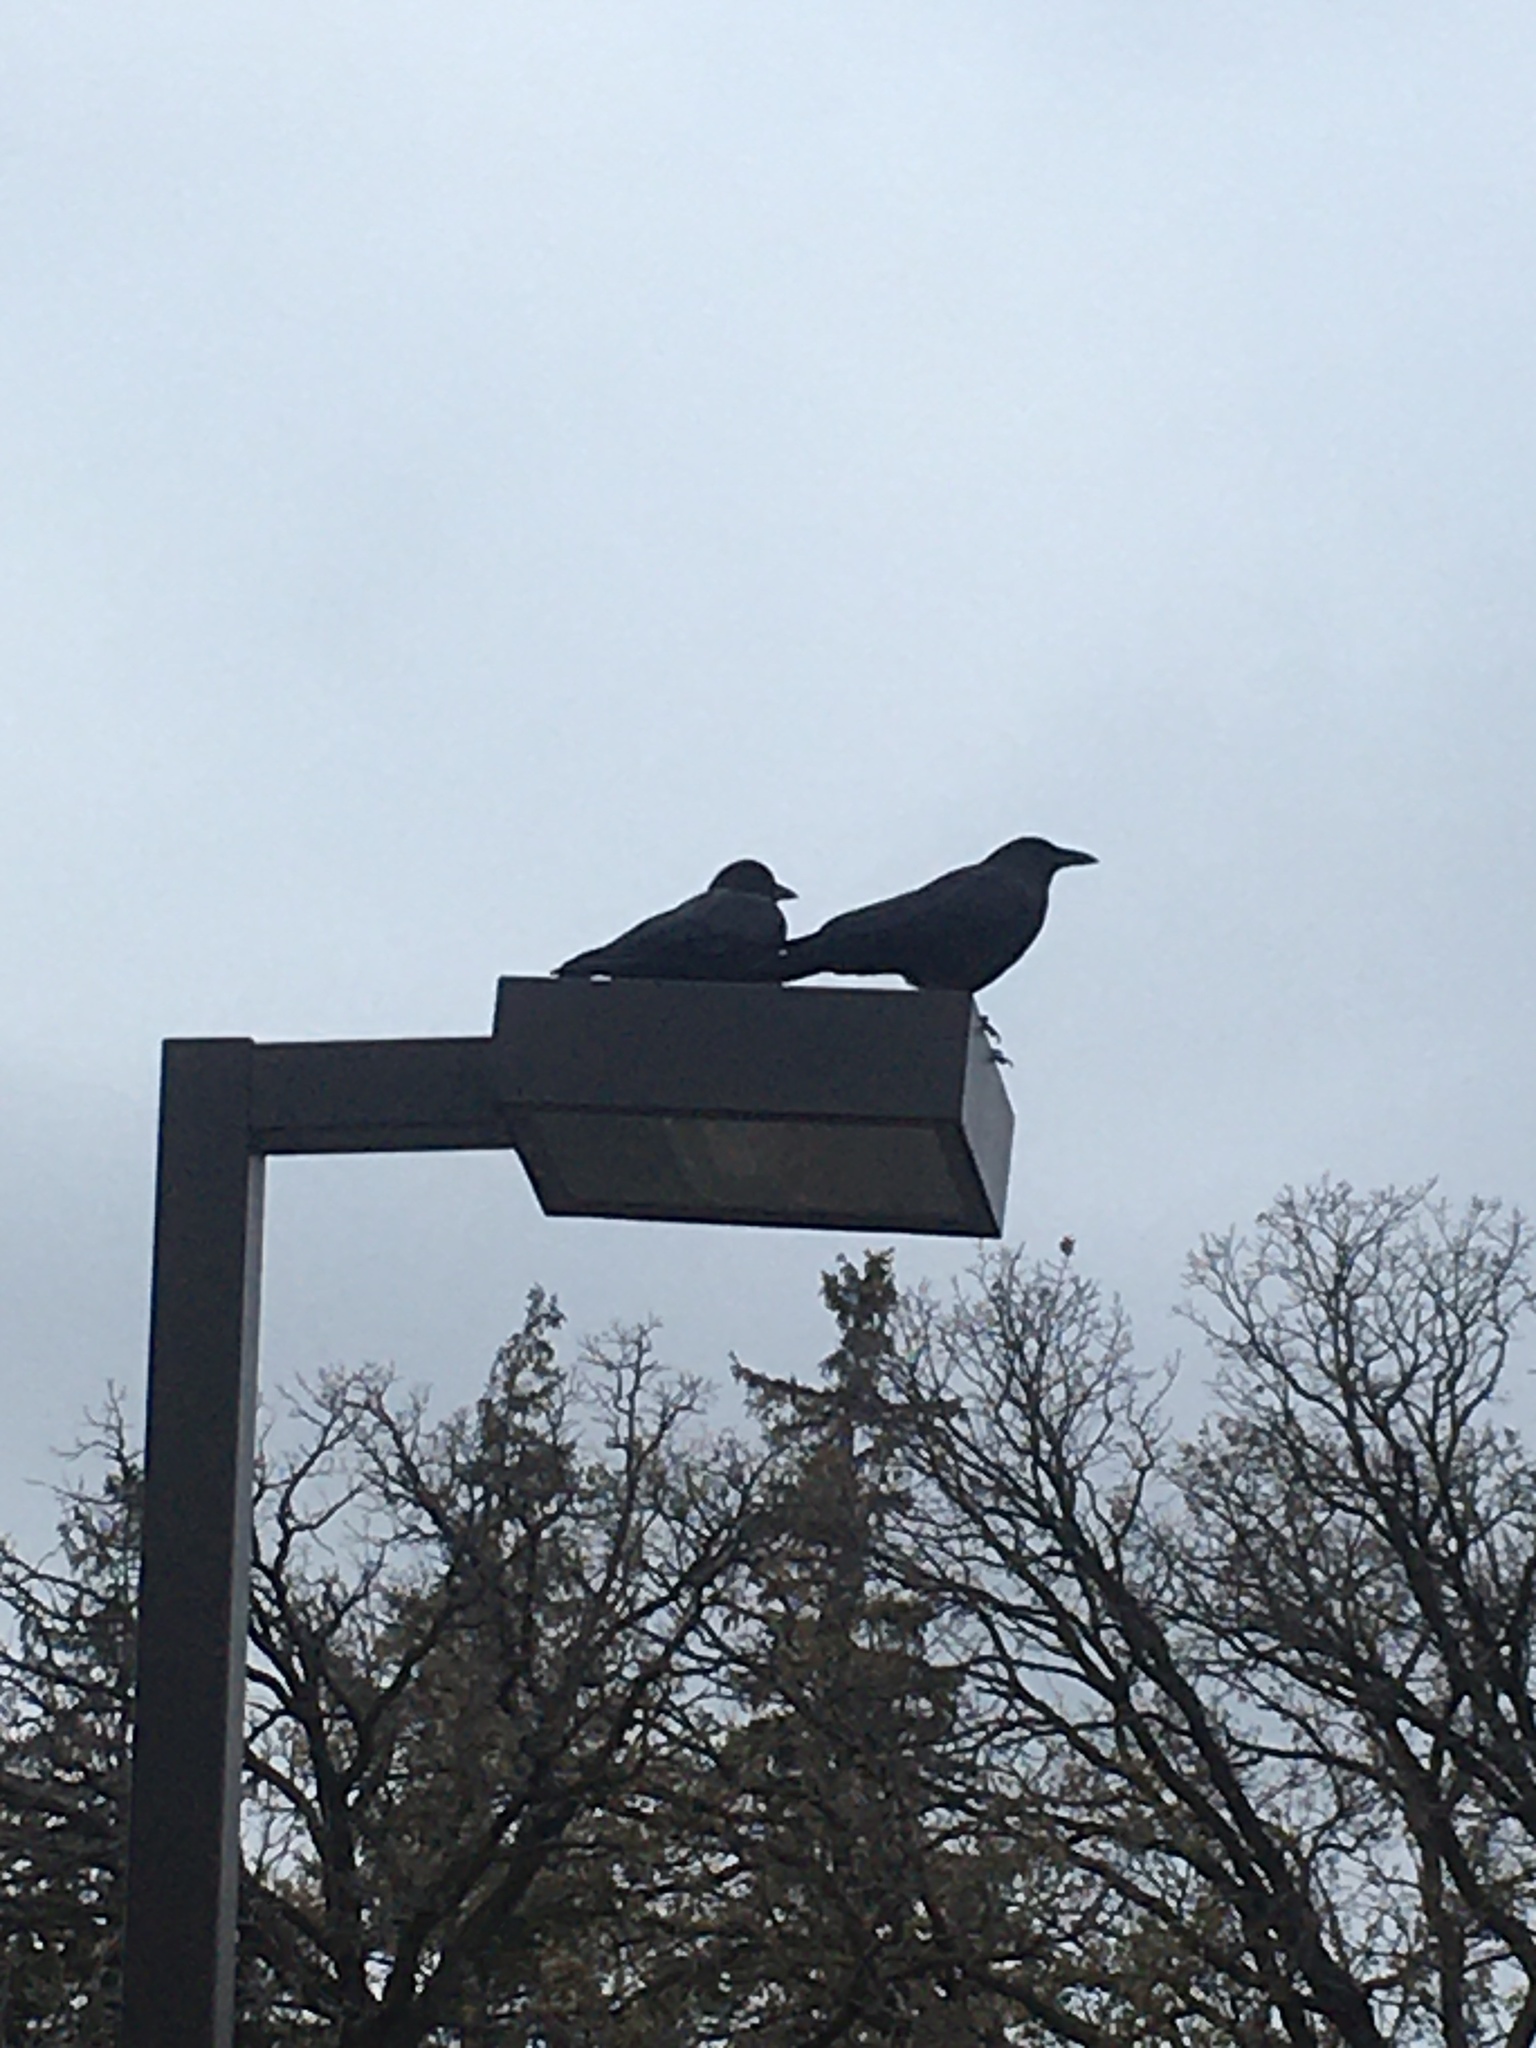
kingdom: Animalia
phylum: Chordata
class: Aves
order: Passeriformes
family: Corvidae
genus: Corvus
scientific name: Corvus brachyrhynchos
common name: American crow
